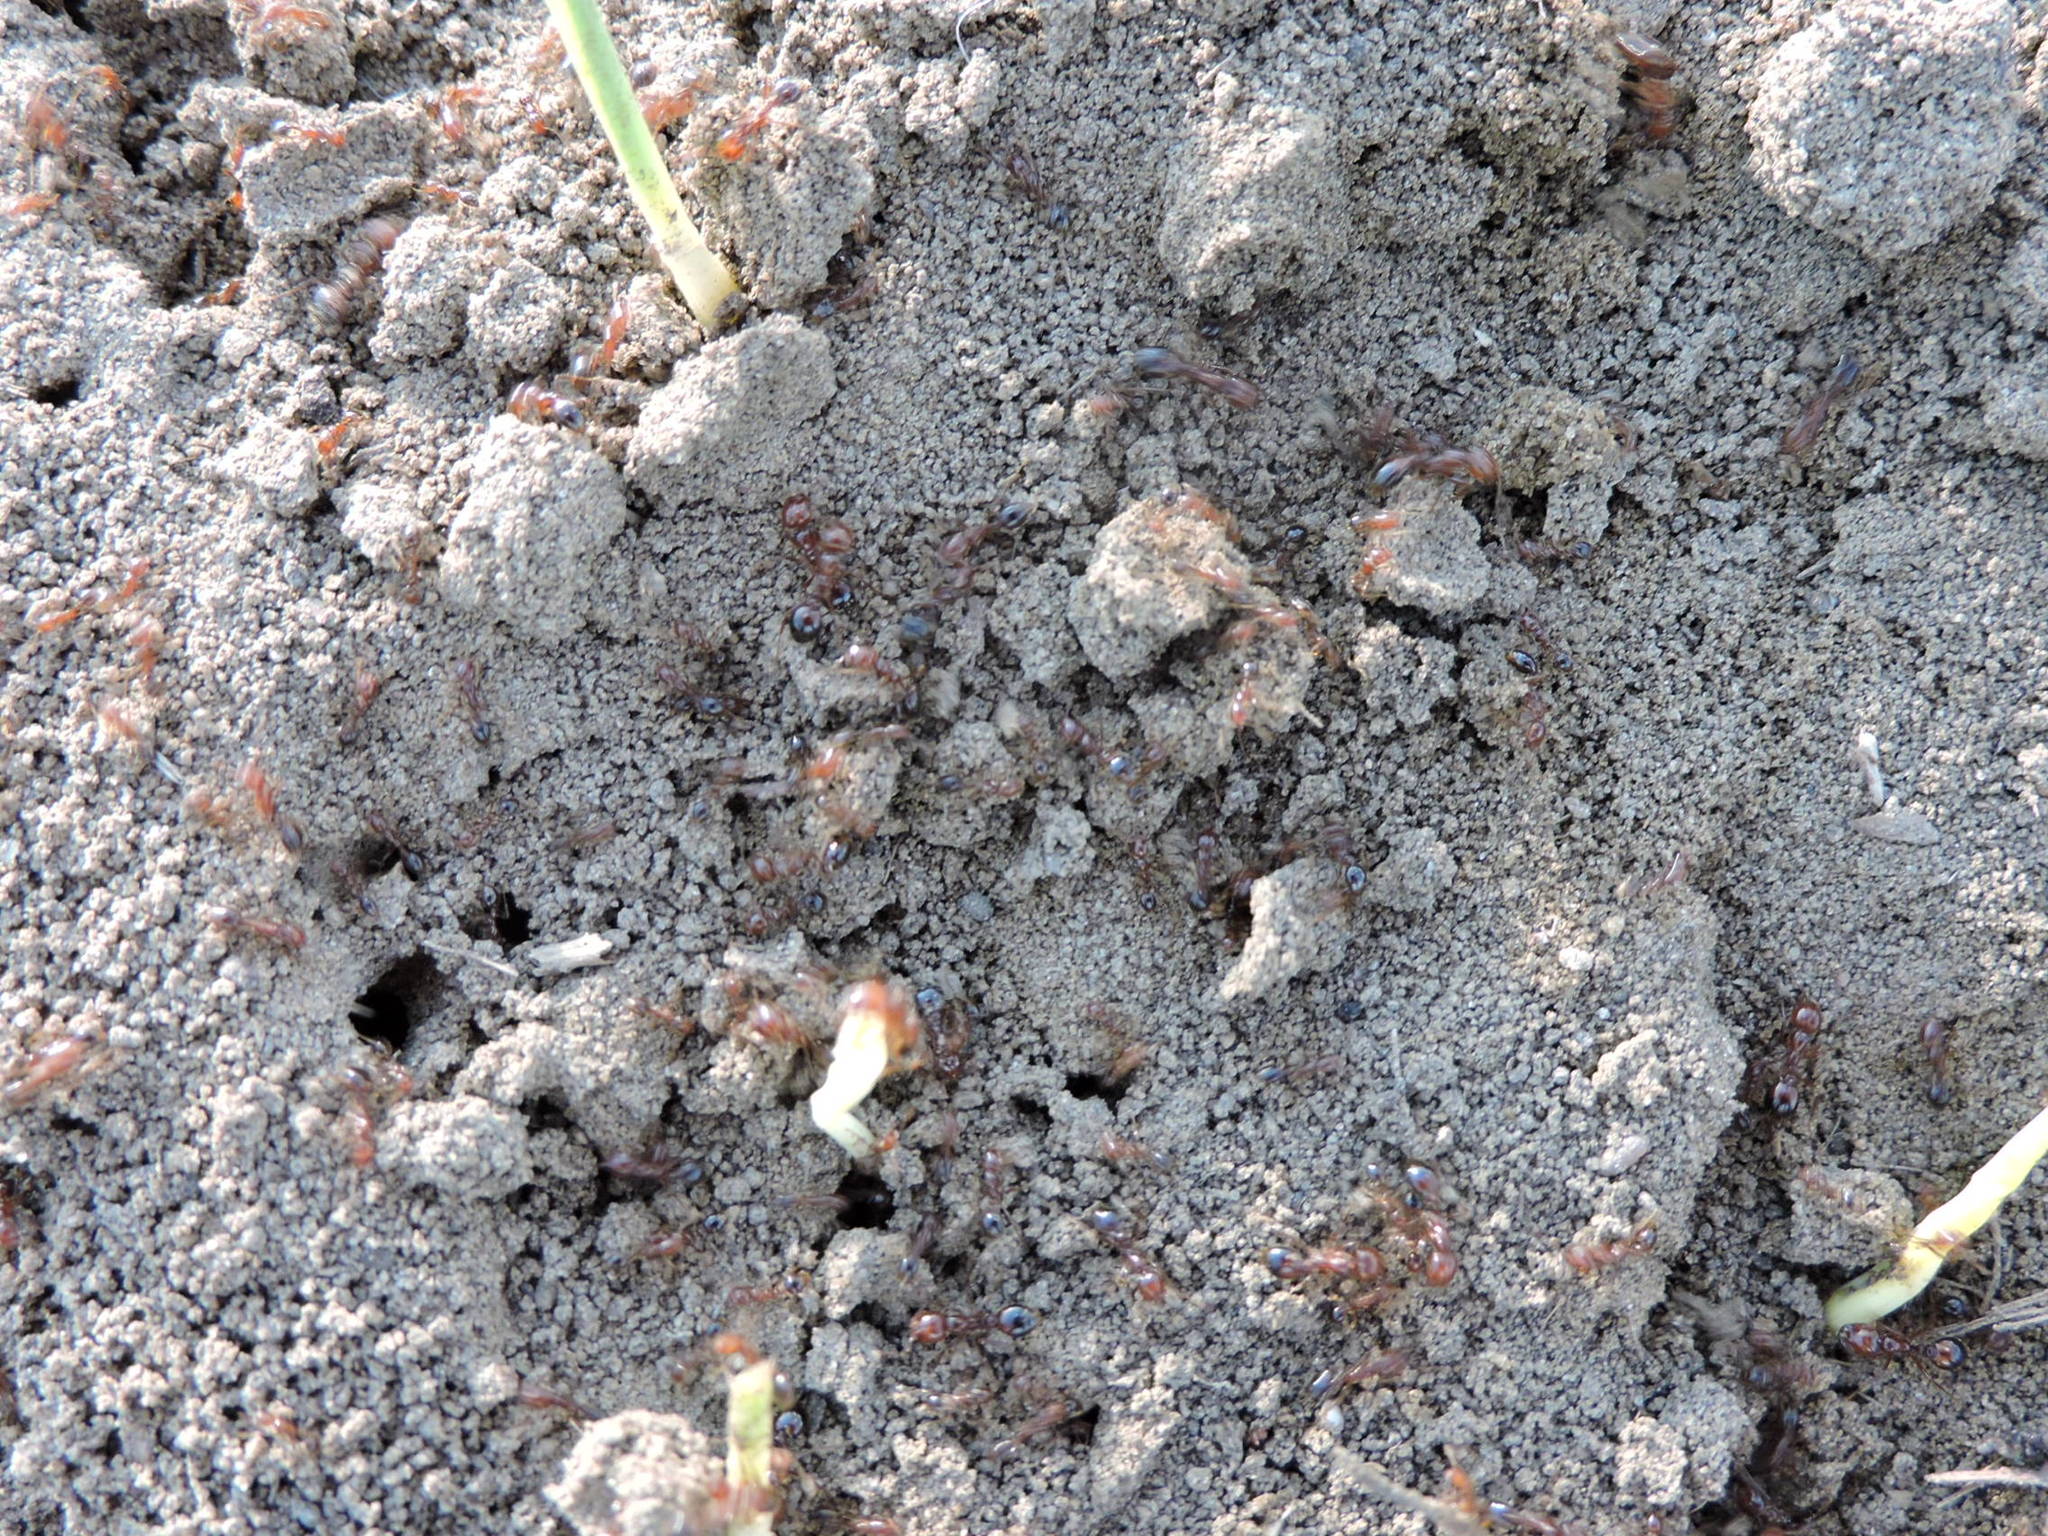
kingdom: Animalia
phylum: Arthropoda
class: Insecta
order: Hymenoptera
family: Formicidae
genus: Solenopsis
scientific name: Solenopsis invicta
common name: Red imported fire ant
